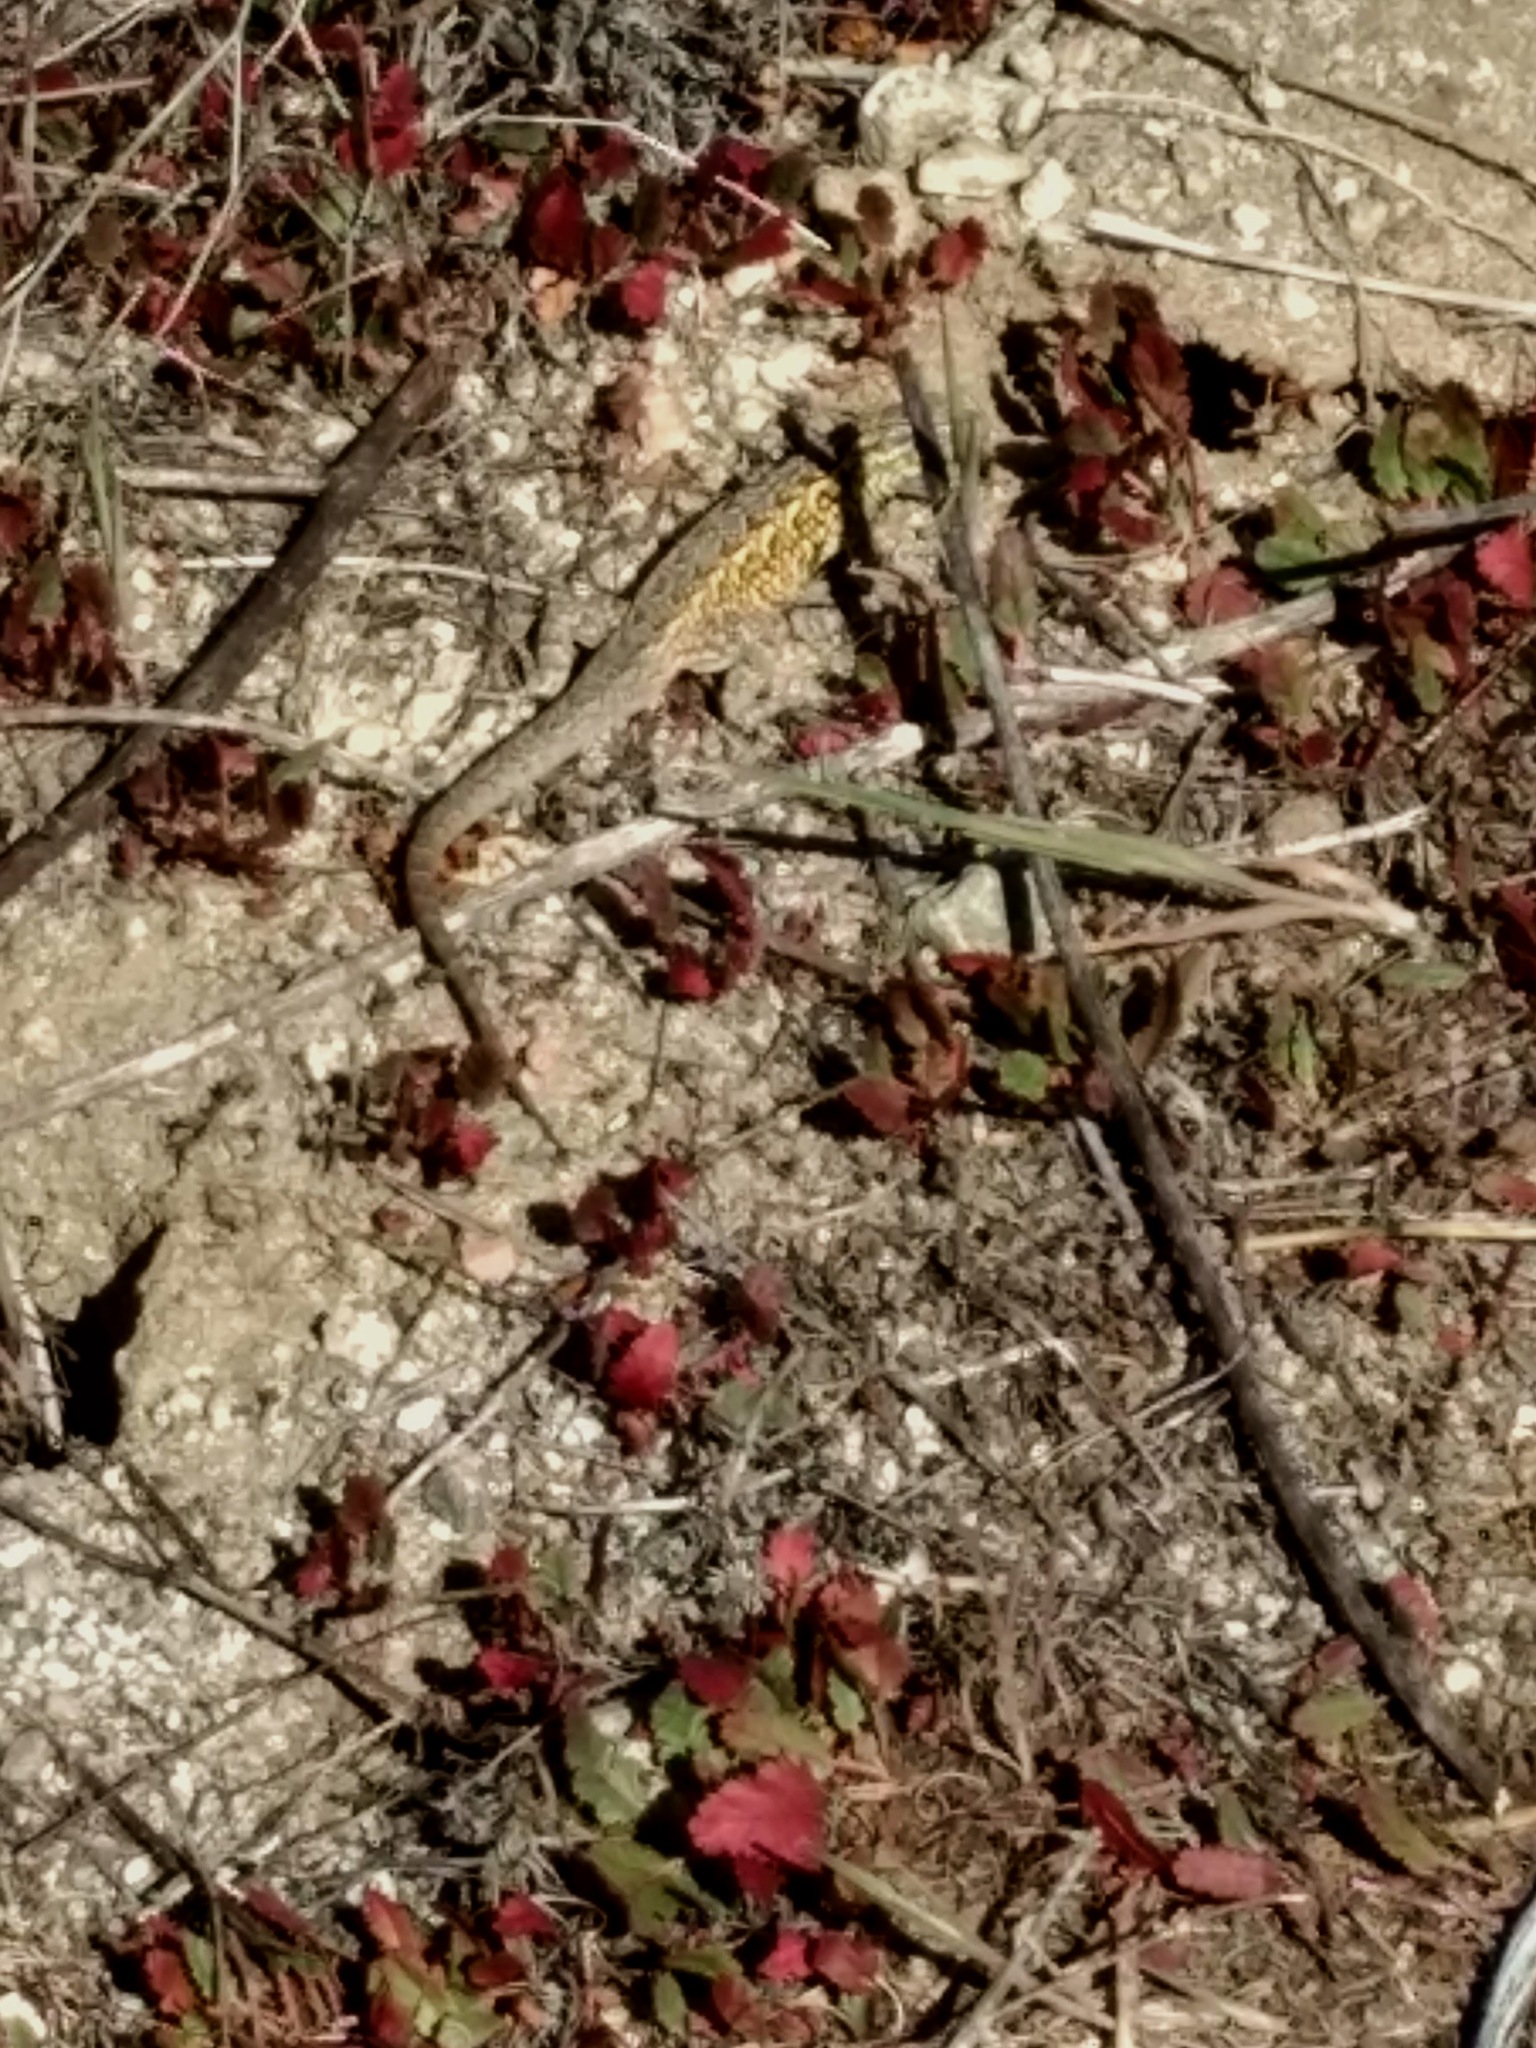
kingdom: Animalia
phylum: Chordata
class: Squamata
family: Phrynosomatidae
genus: Uta
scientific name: Uta stansburiana
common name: Side-blotched lizard
